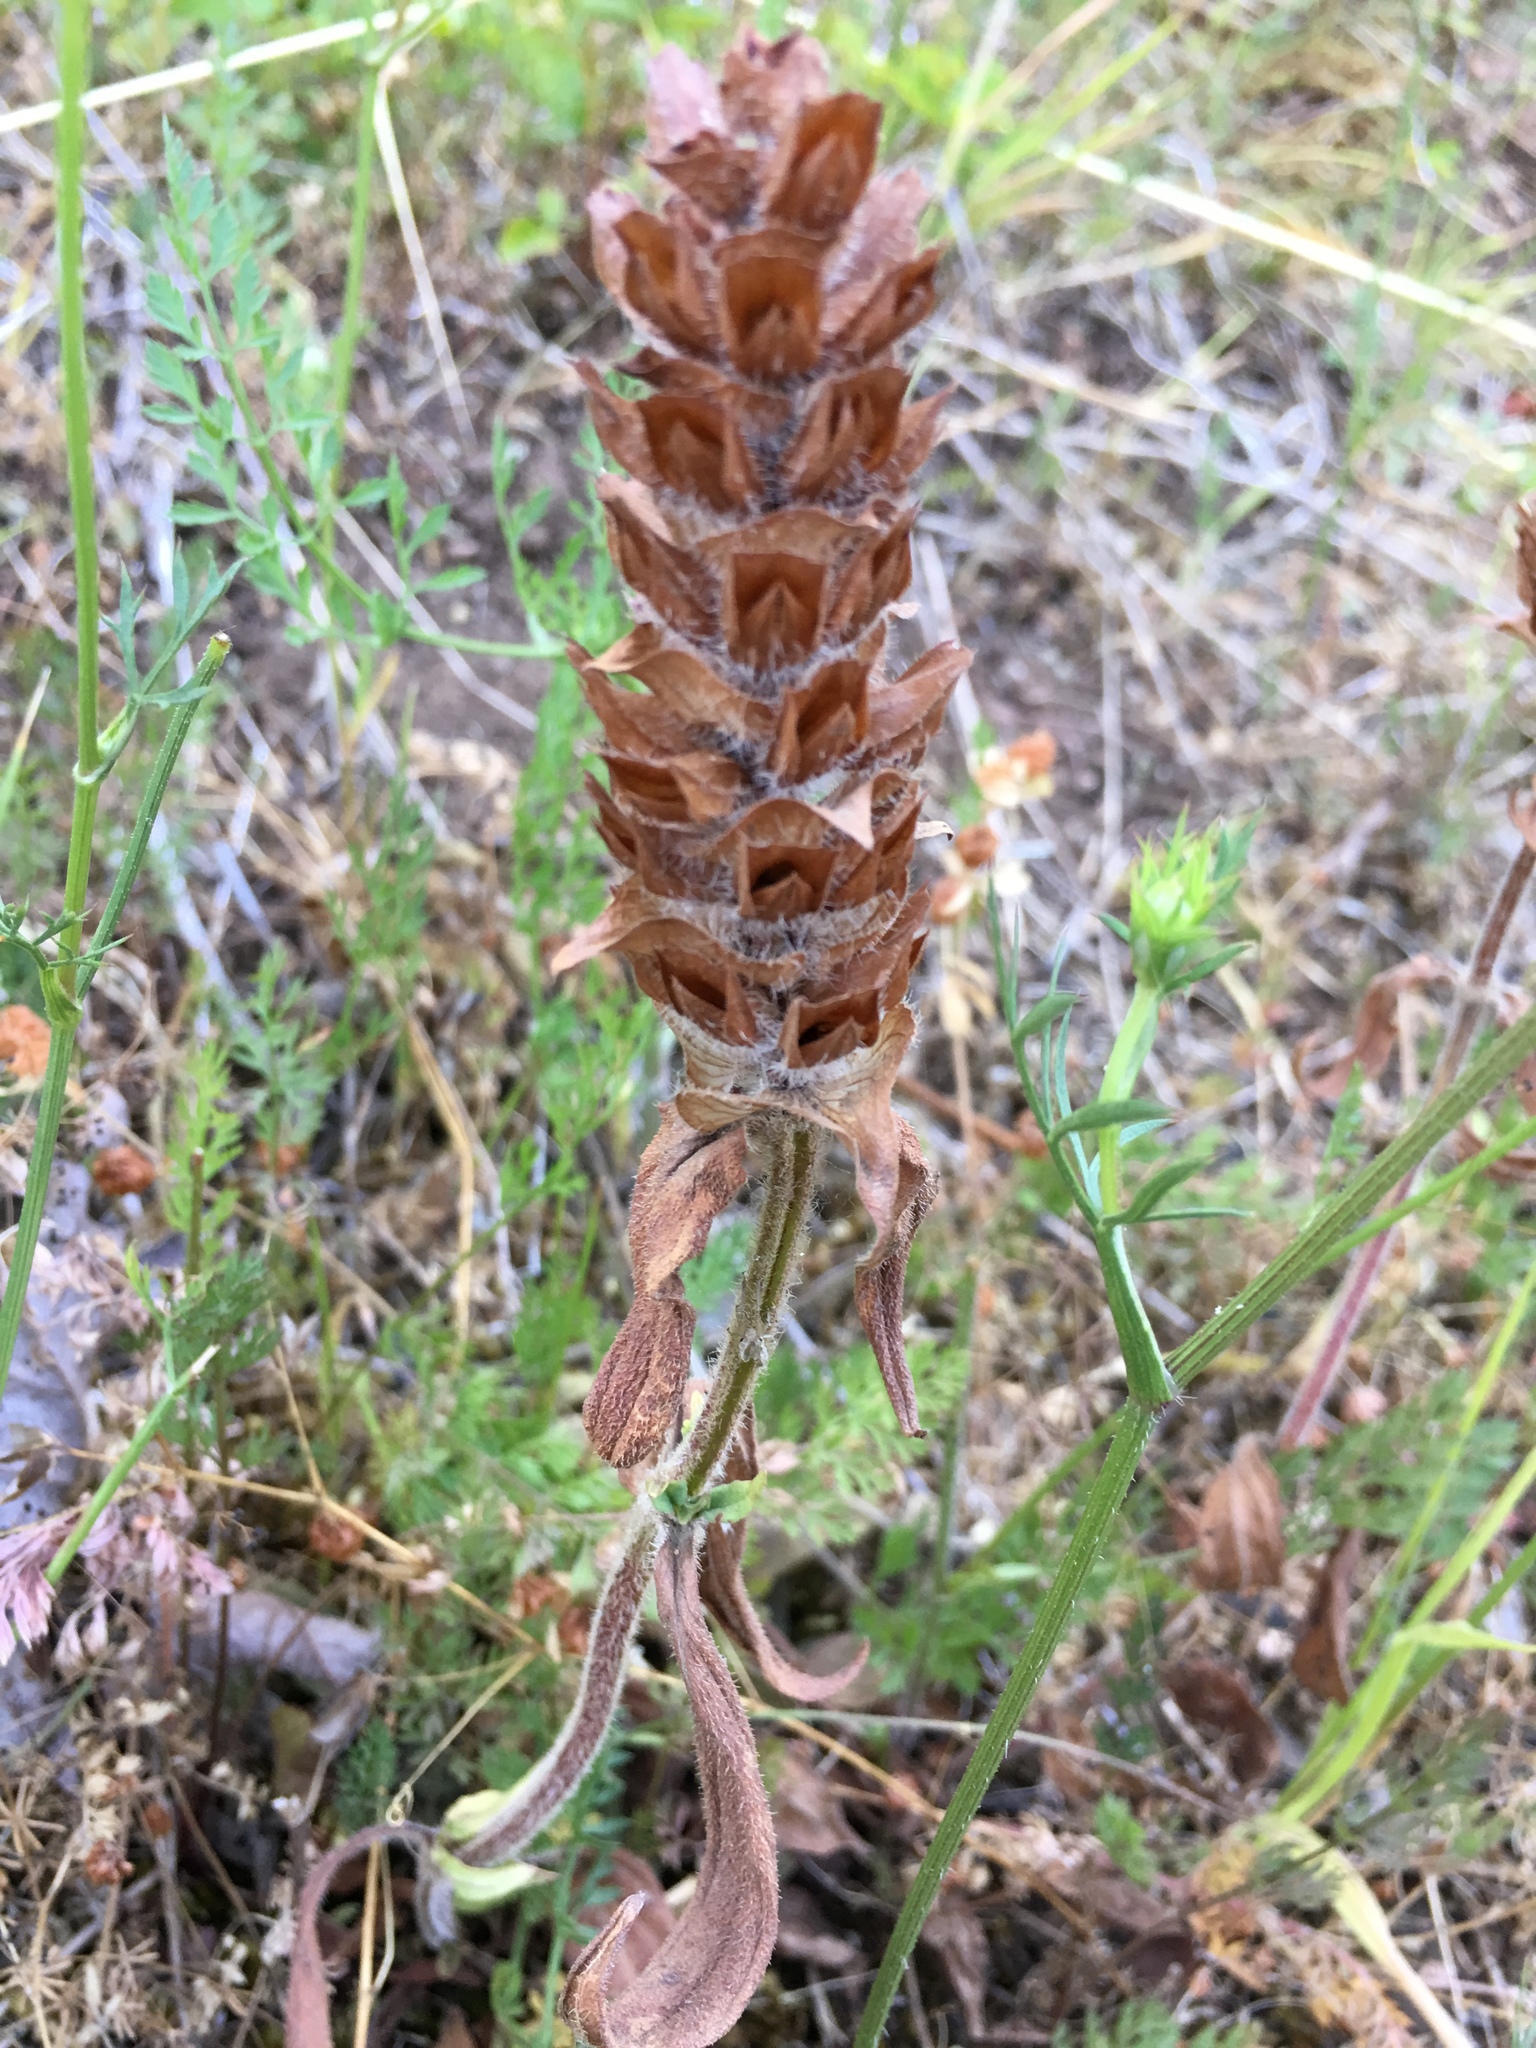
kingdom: Plantae
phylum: Tracheophyta
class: Magnoliopsida
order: Lamiales
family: Lamiaceae
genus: Prunella
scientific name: Prunella vulgaris
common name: Heal-all
